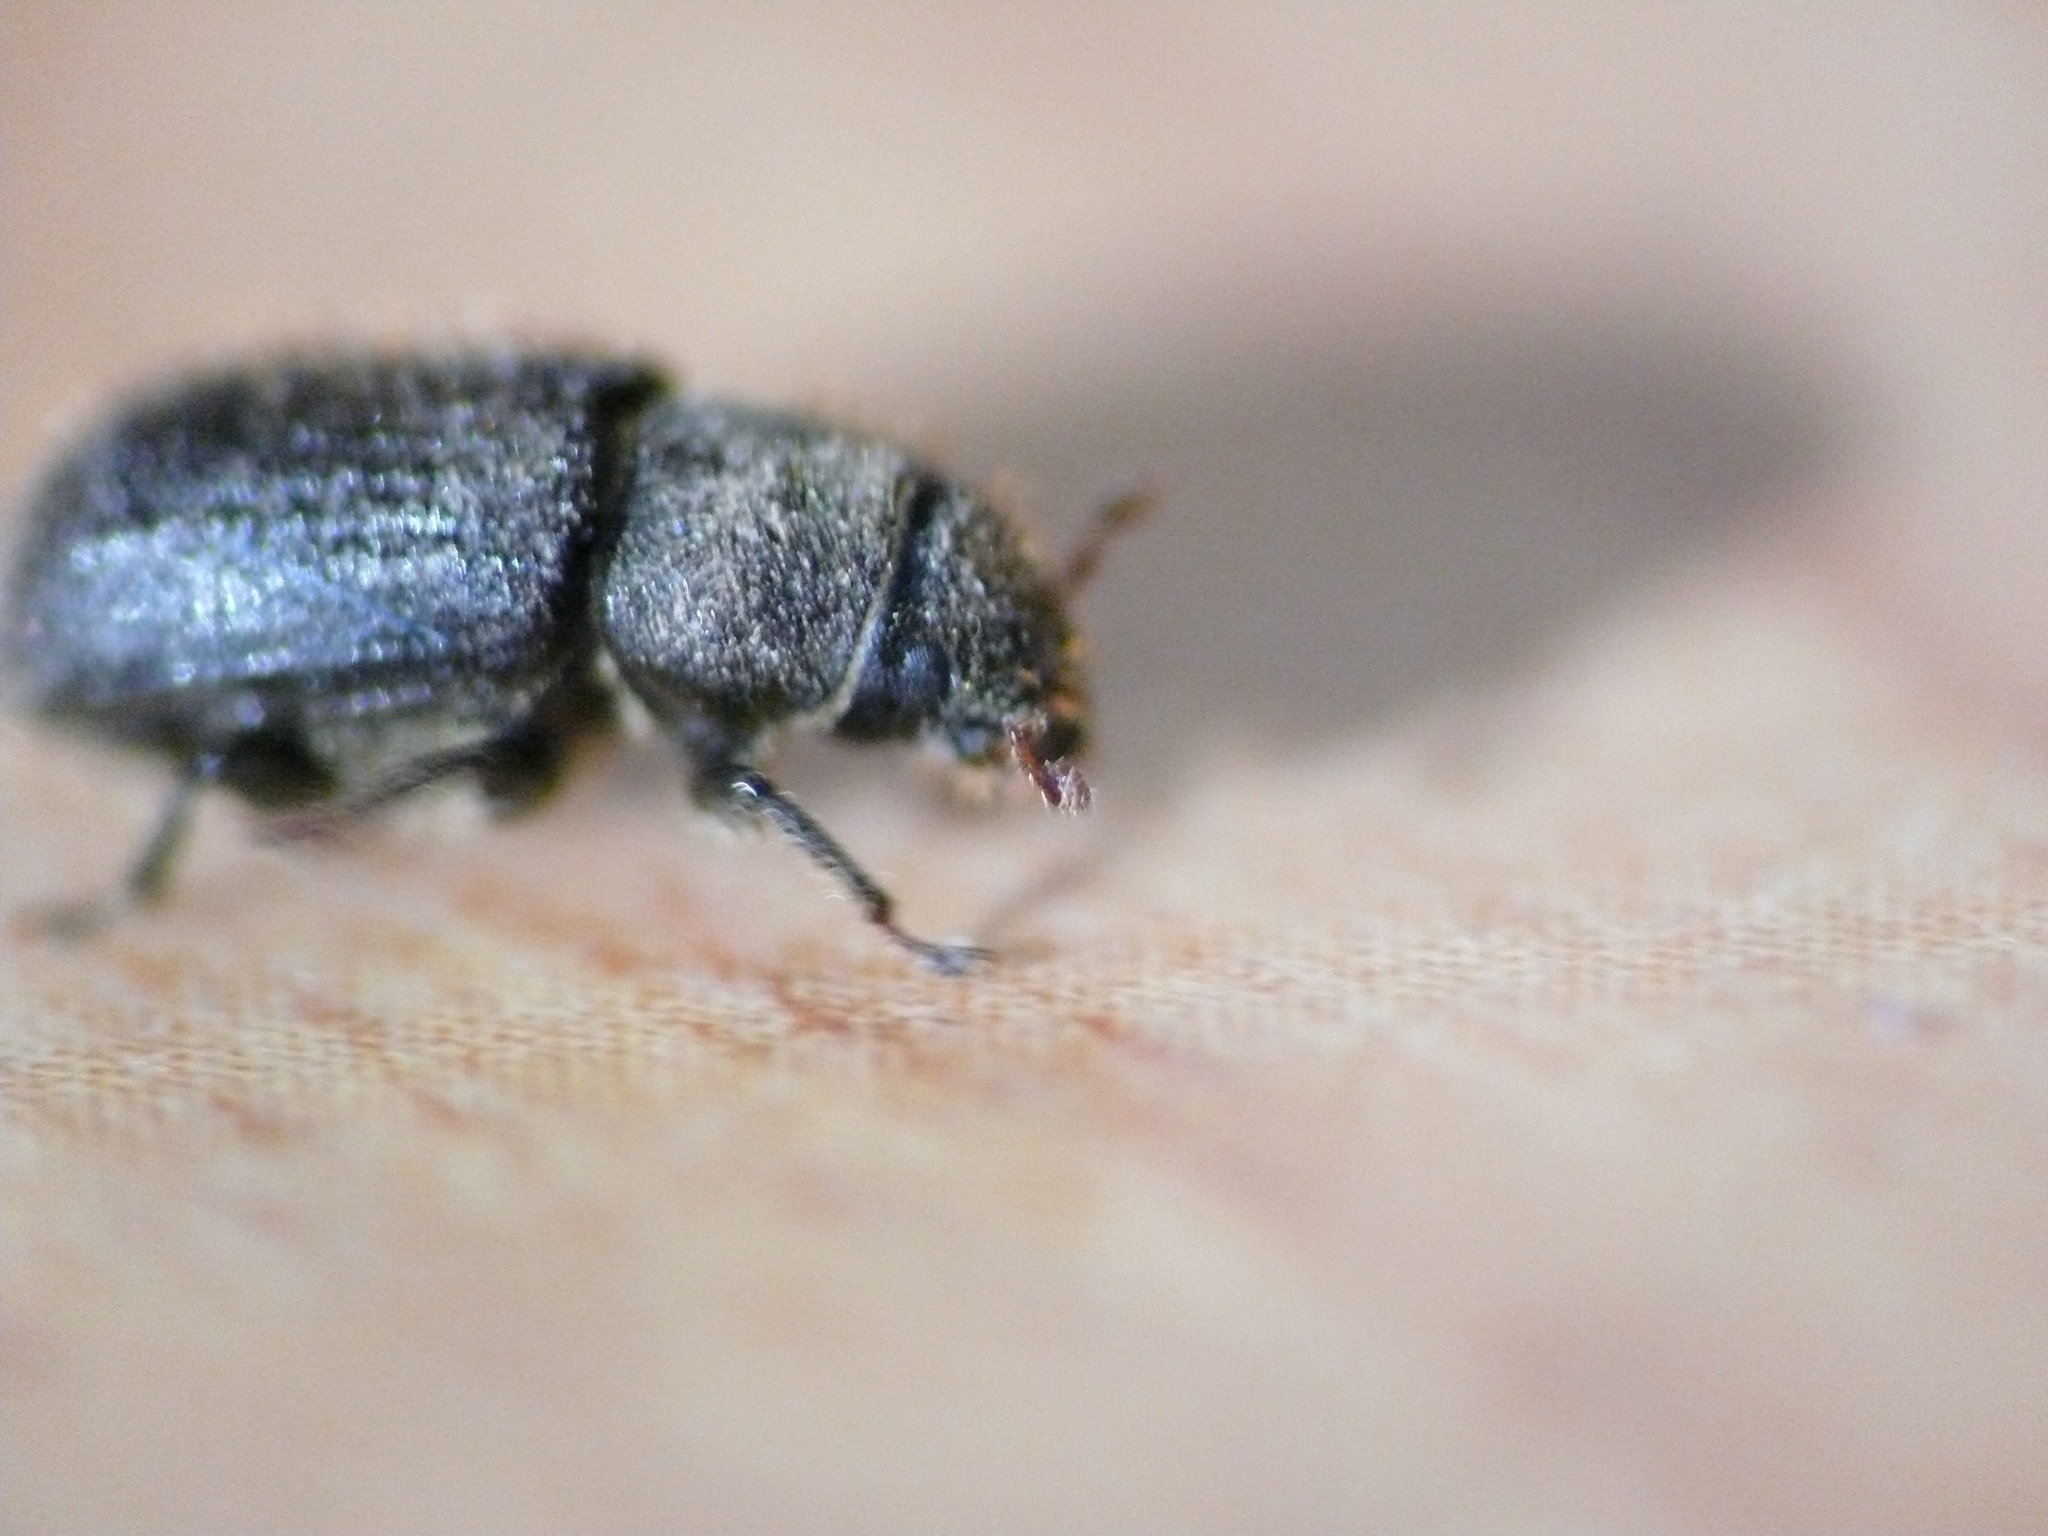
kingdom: Animalia
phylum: Arthropoda
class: Insecta
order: Coleoptera
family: Curculionidae
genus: Dendroctonus
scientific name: Dendroctonus rufipennis
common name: Spruce beetle
